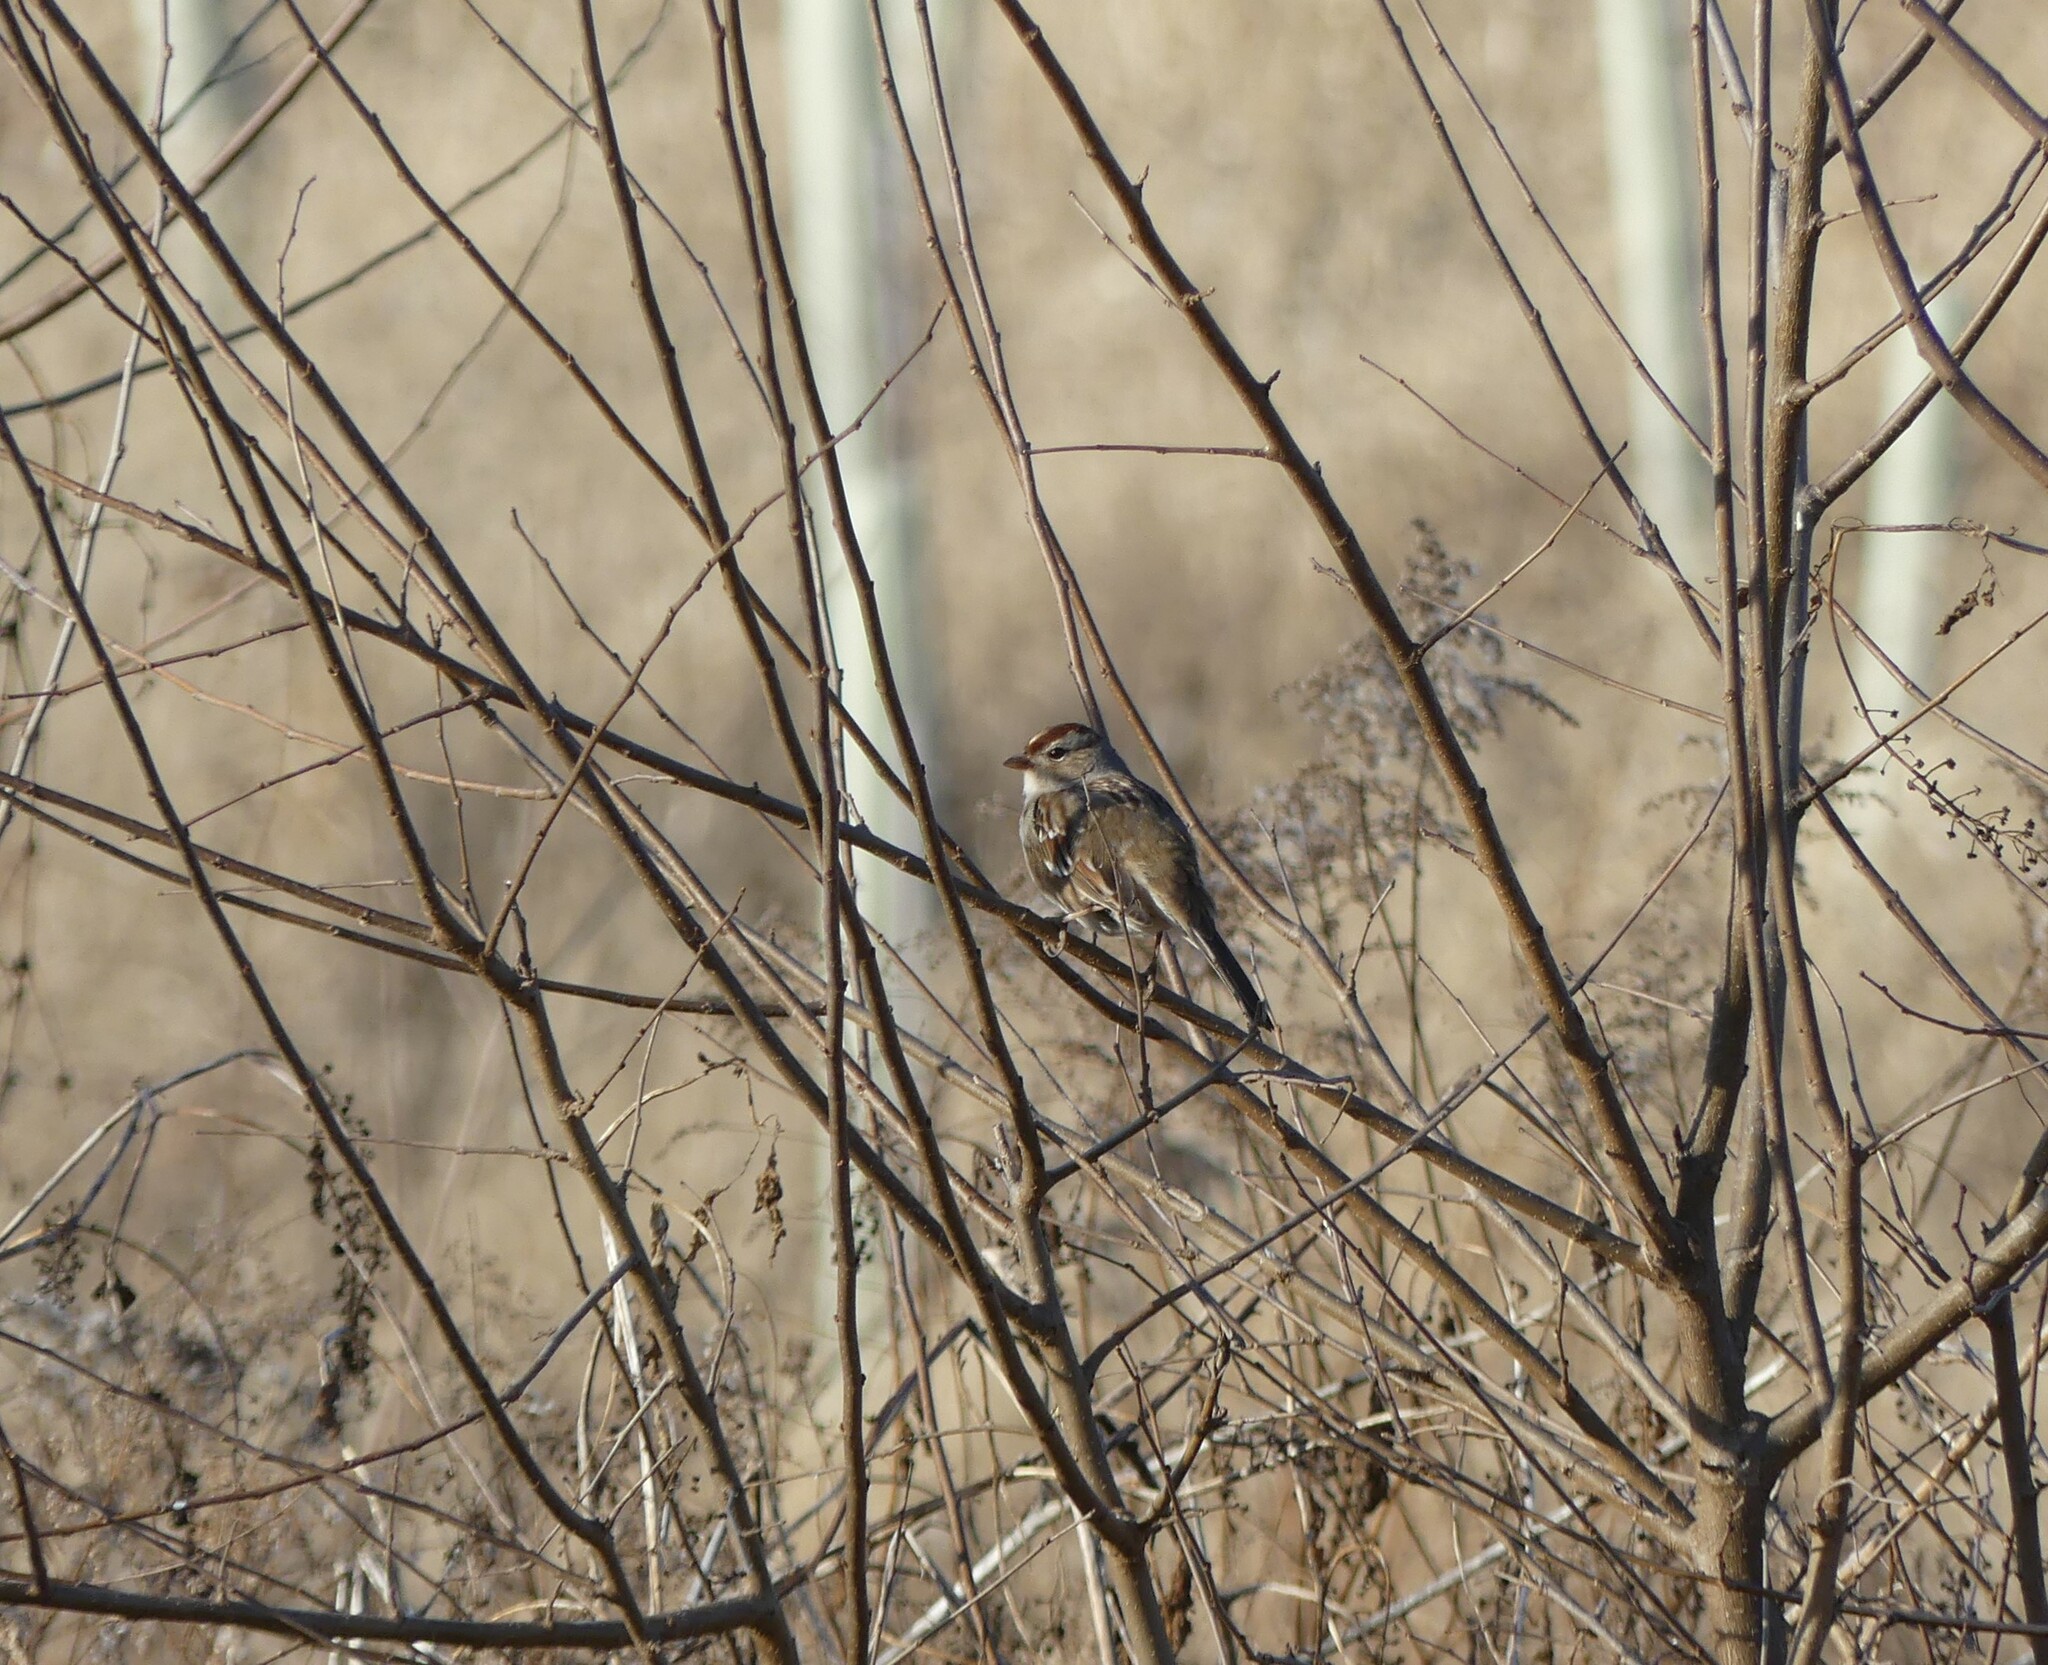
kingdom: Animalia
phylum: Chordata
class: Aves
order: Passeriformes
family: Passerellidae
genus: Zonotrichia
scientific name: Zonotrichia leucophrys
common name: White-crowned sparrow
